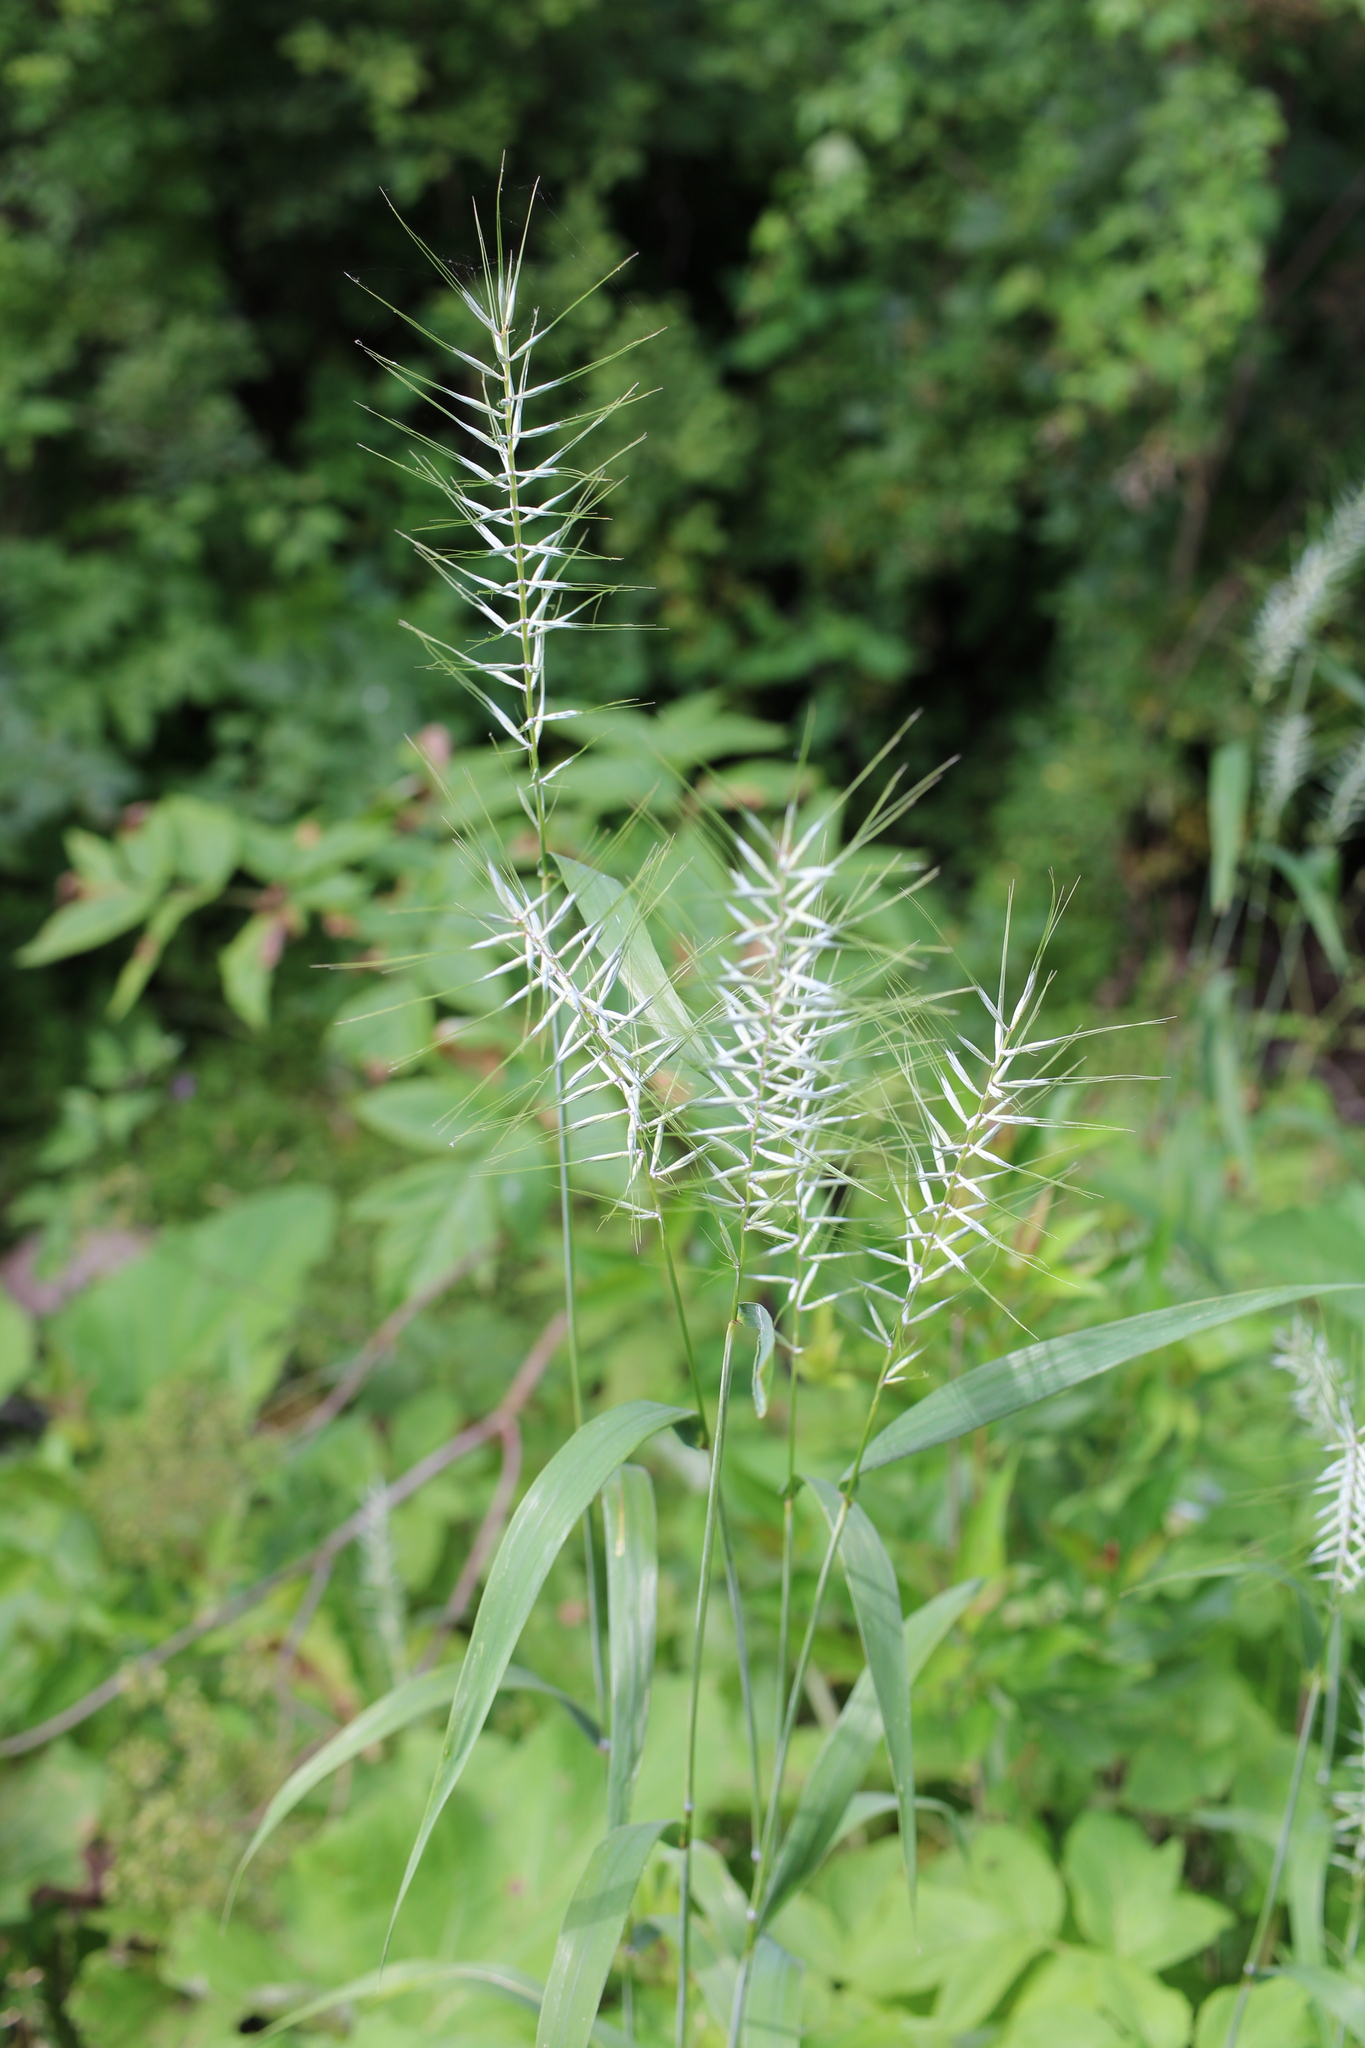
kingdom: Plantae
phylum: Tracheophyta
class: Liliopsida
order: Poales
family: Poaceae
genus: Elymus
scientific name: Elymus hystrix
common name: Bottlebrush grass
